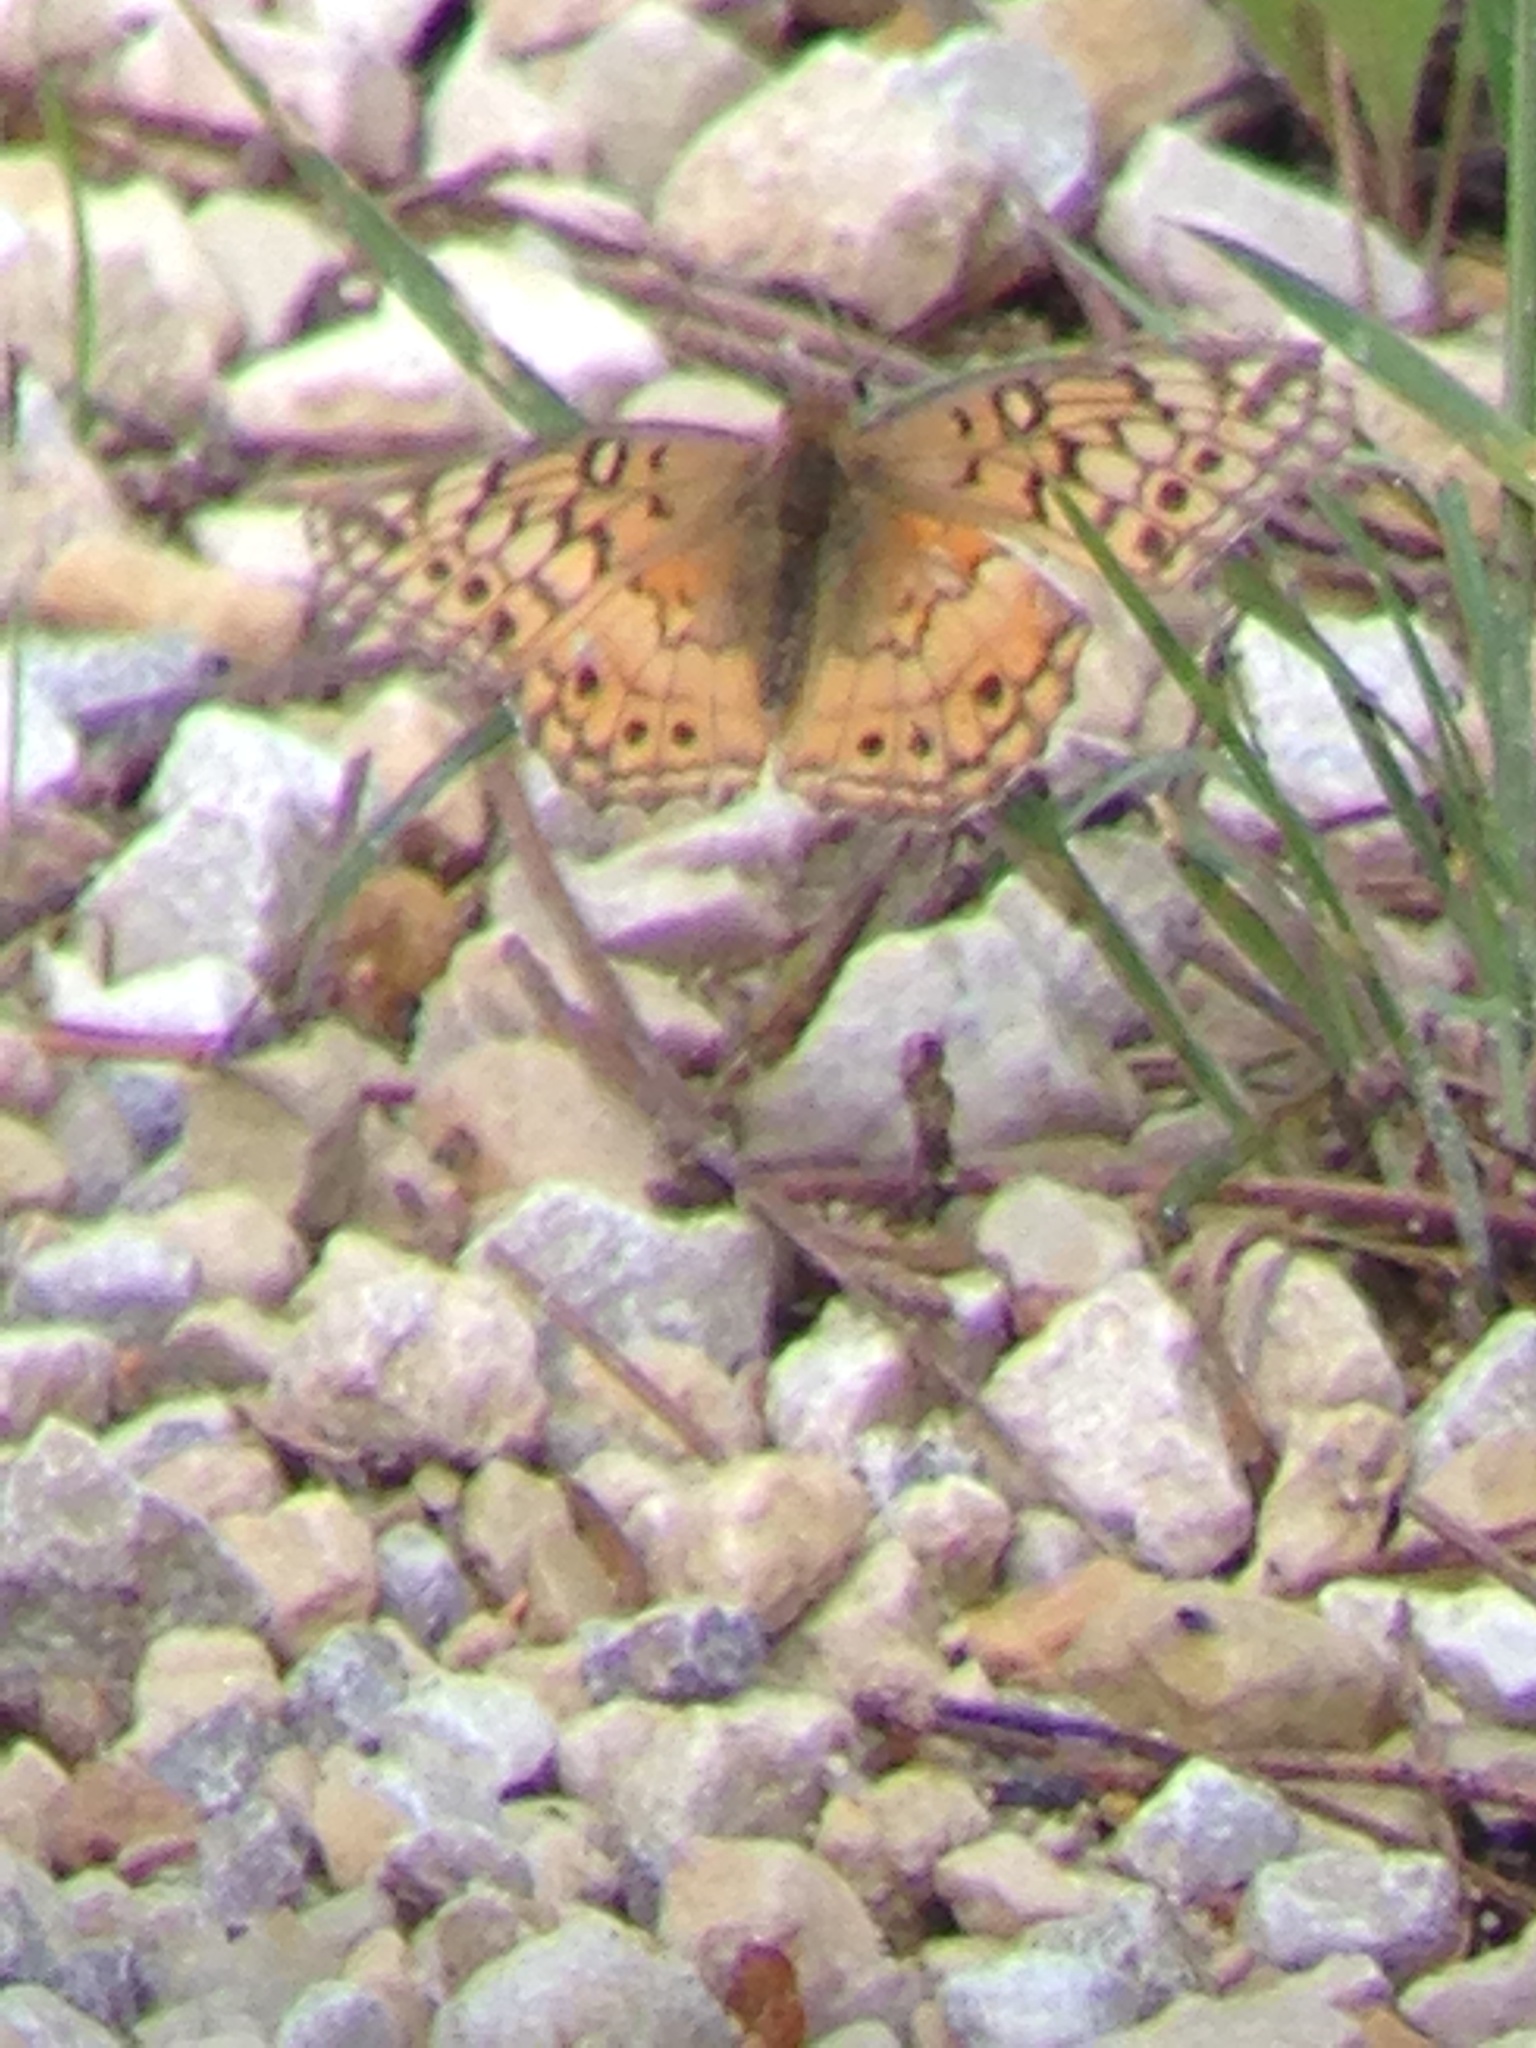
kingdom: Animalia
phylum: Arthropoda
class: Insecta
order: Lepidoptera
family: Nymphalidae
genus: Euptoieta
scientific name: Euptoieta claudia
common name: Variegated fritillary
